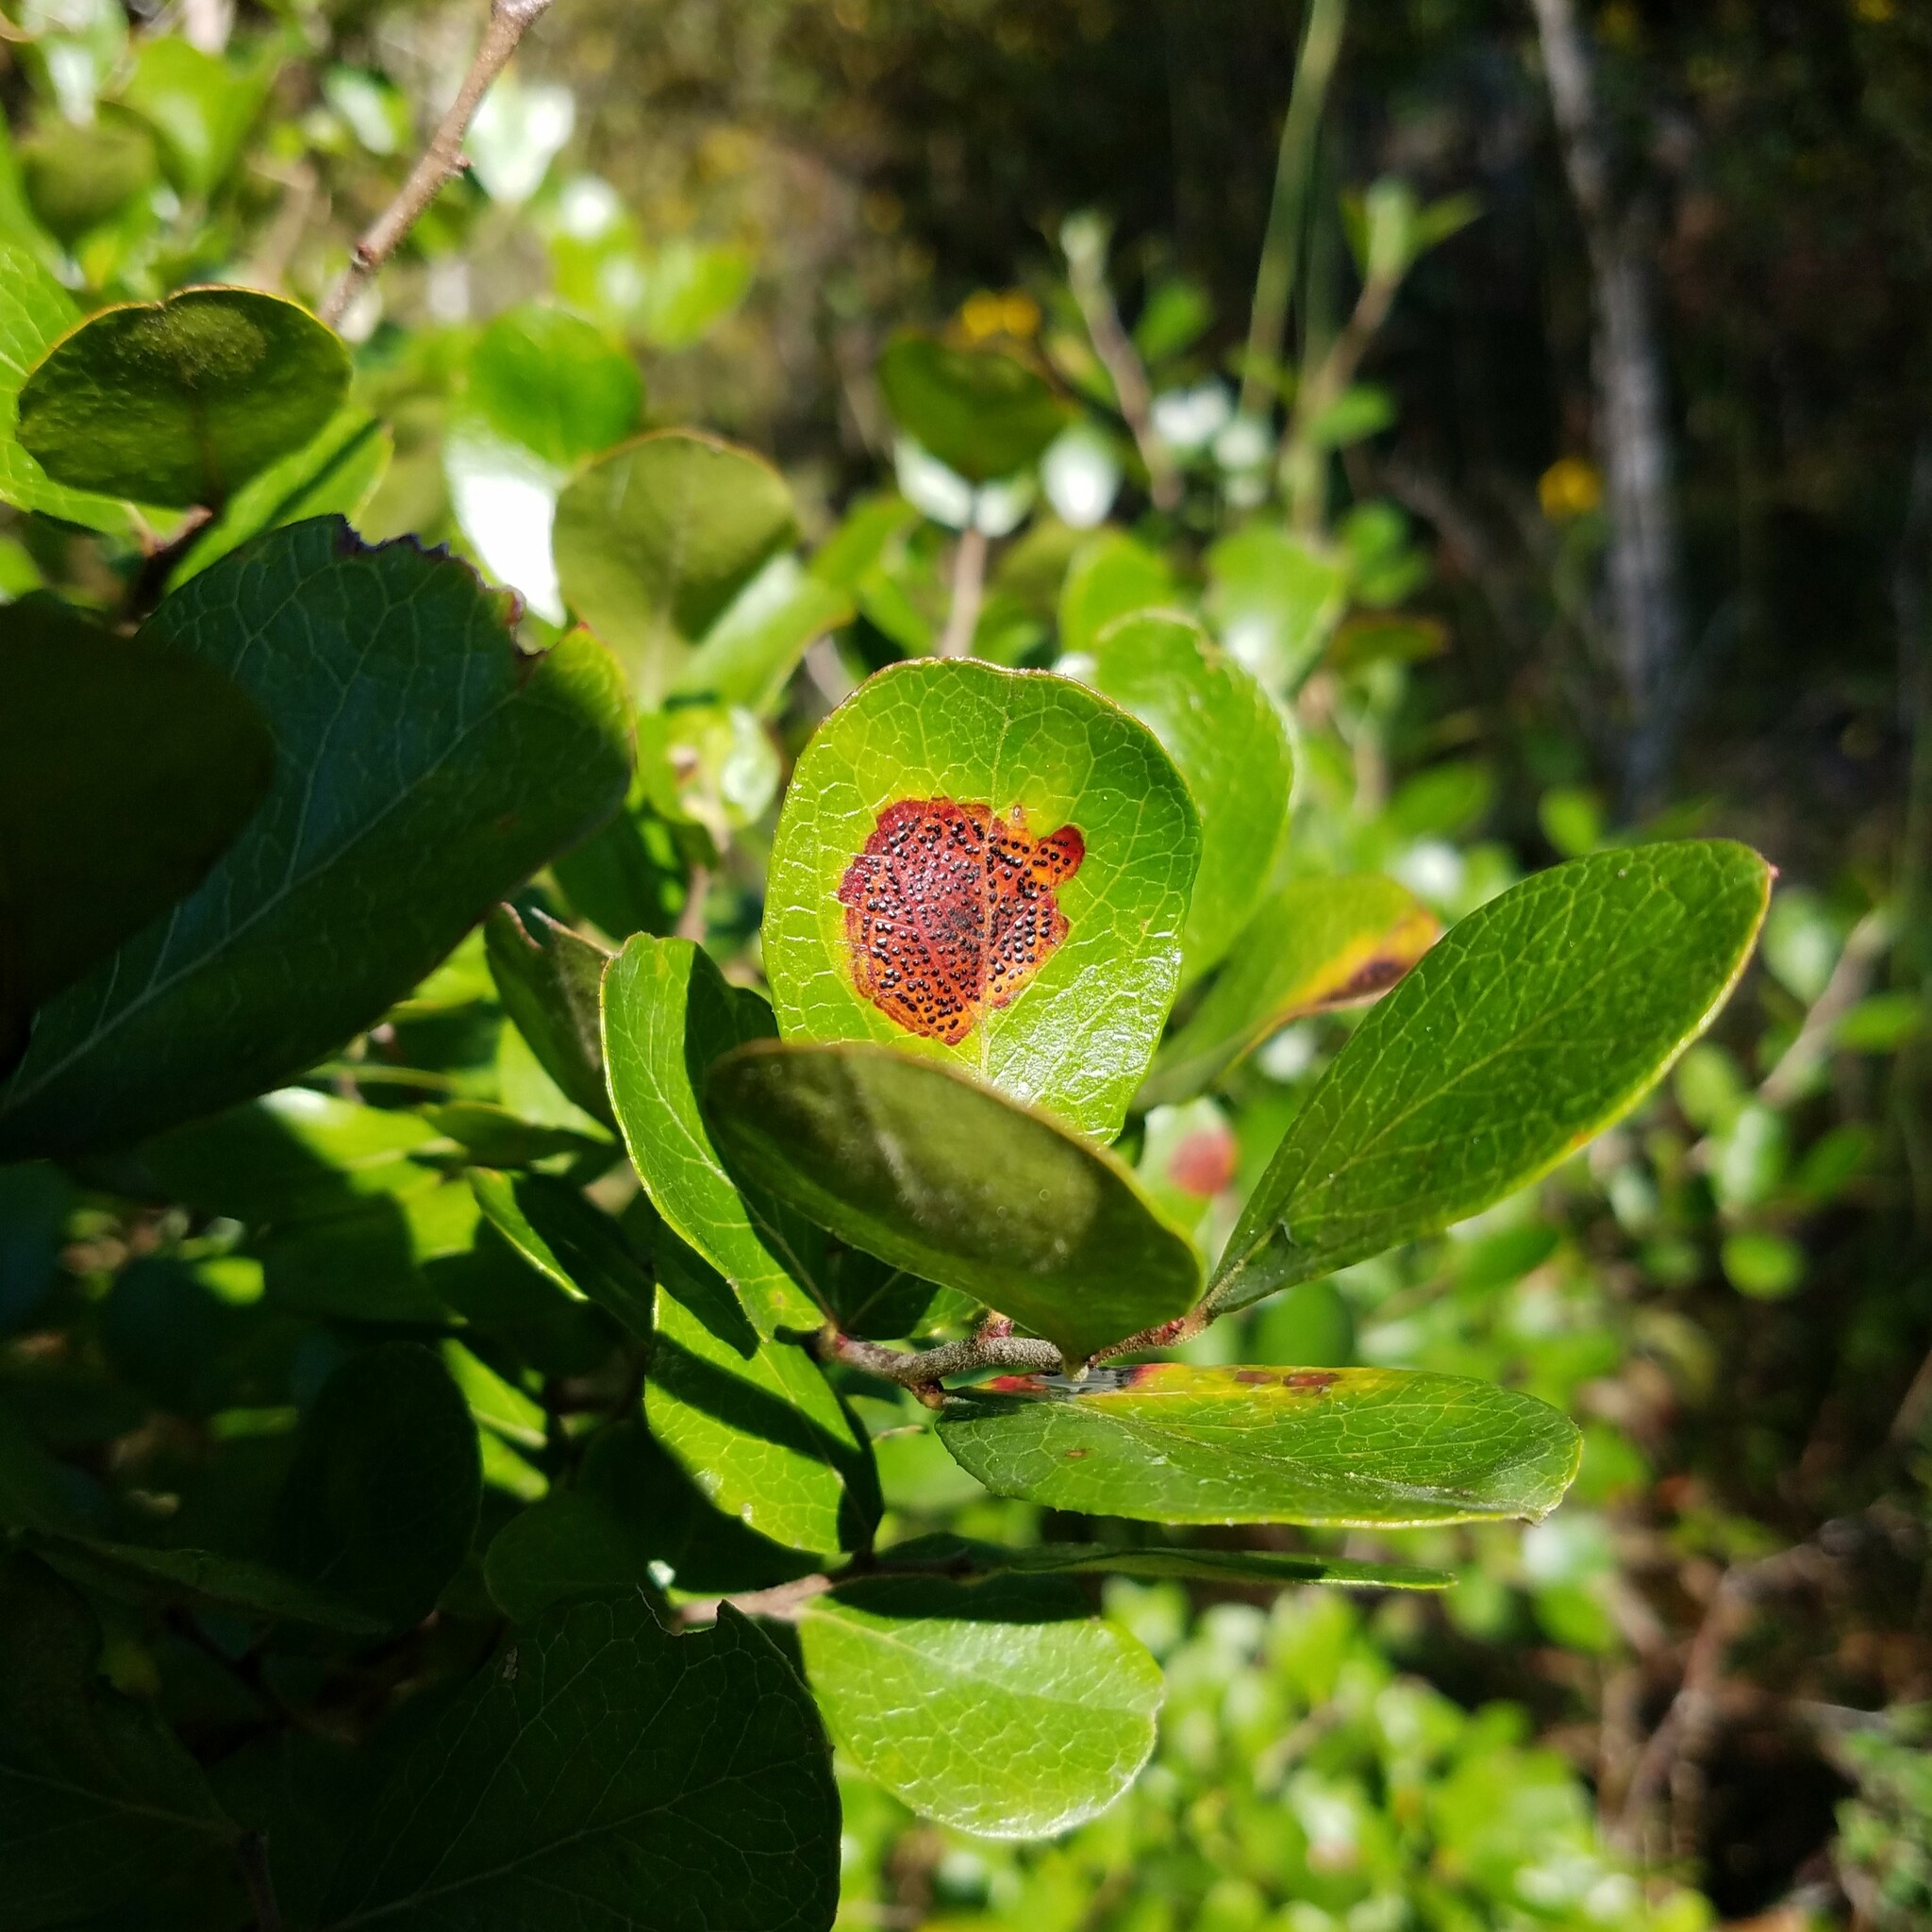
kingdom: Fungi
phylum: Ascomycota
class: Sordariomycetes
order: Phyllachorales
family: Phyllachoraceae
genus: Ophiodothella
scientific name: Ophiodothella angustissima
